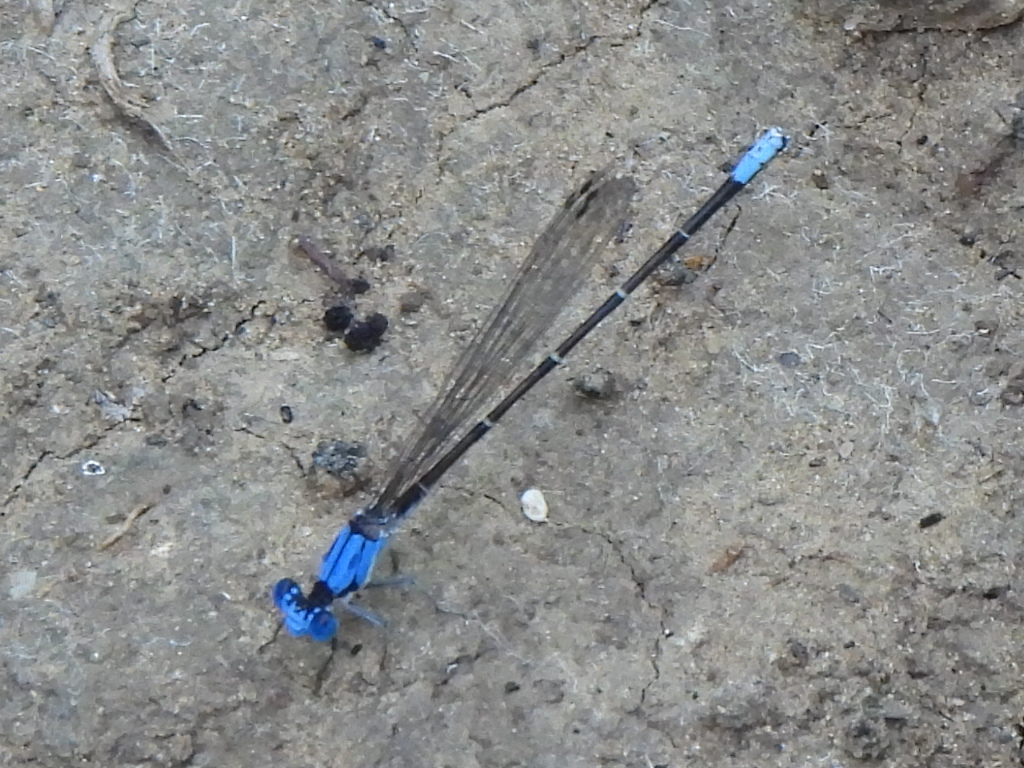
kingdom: Animalia
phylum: Arthropoda
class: Insecta
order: Odonata
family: Coenagrionidae
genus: Argia
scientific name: Argia apicalis
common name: Blue-fronted dancer
